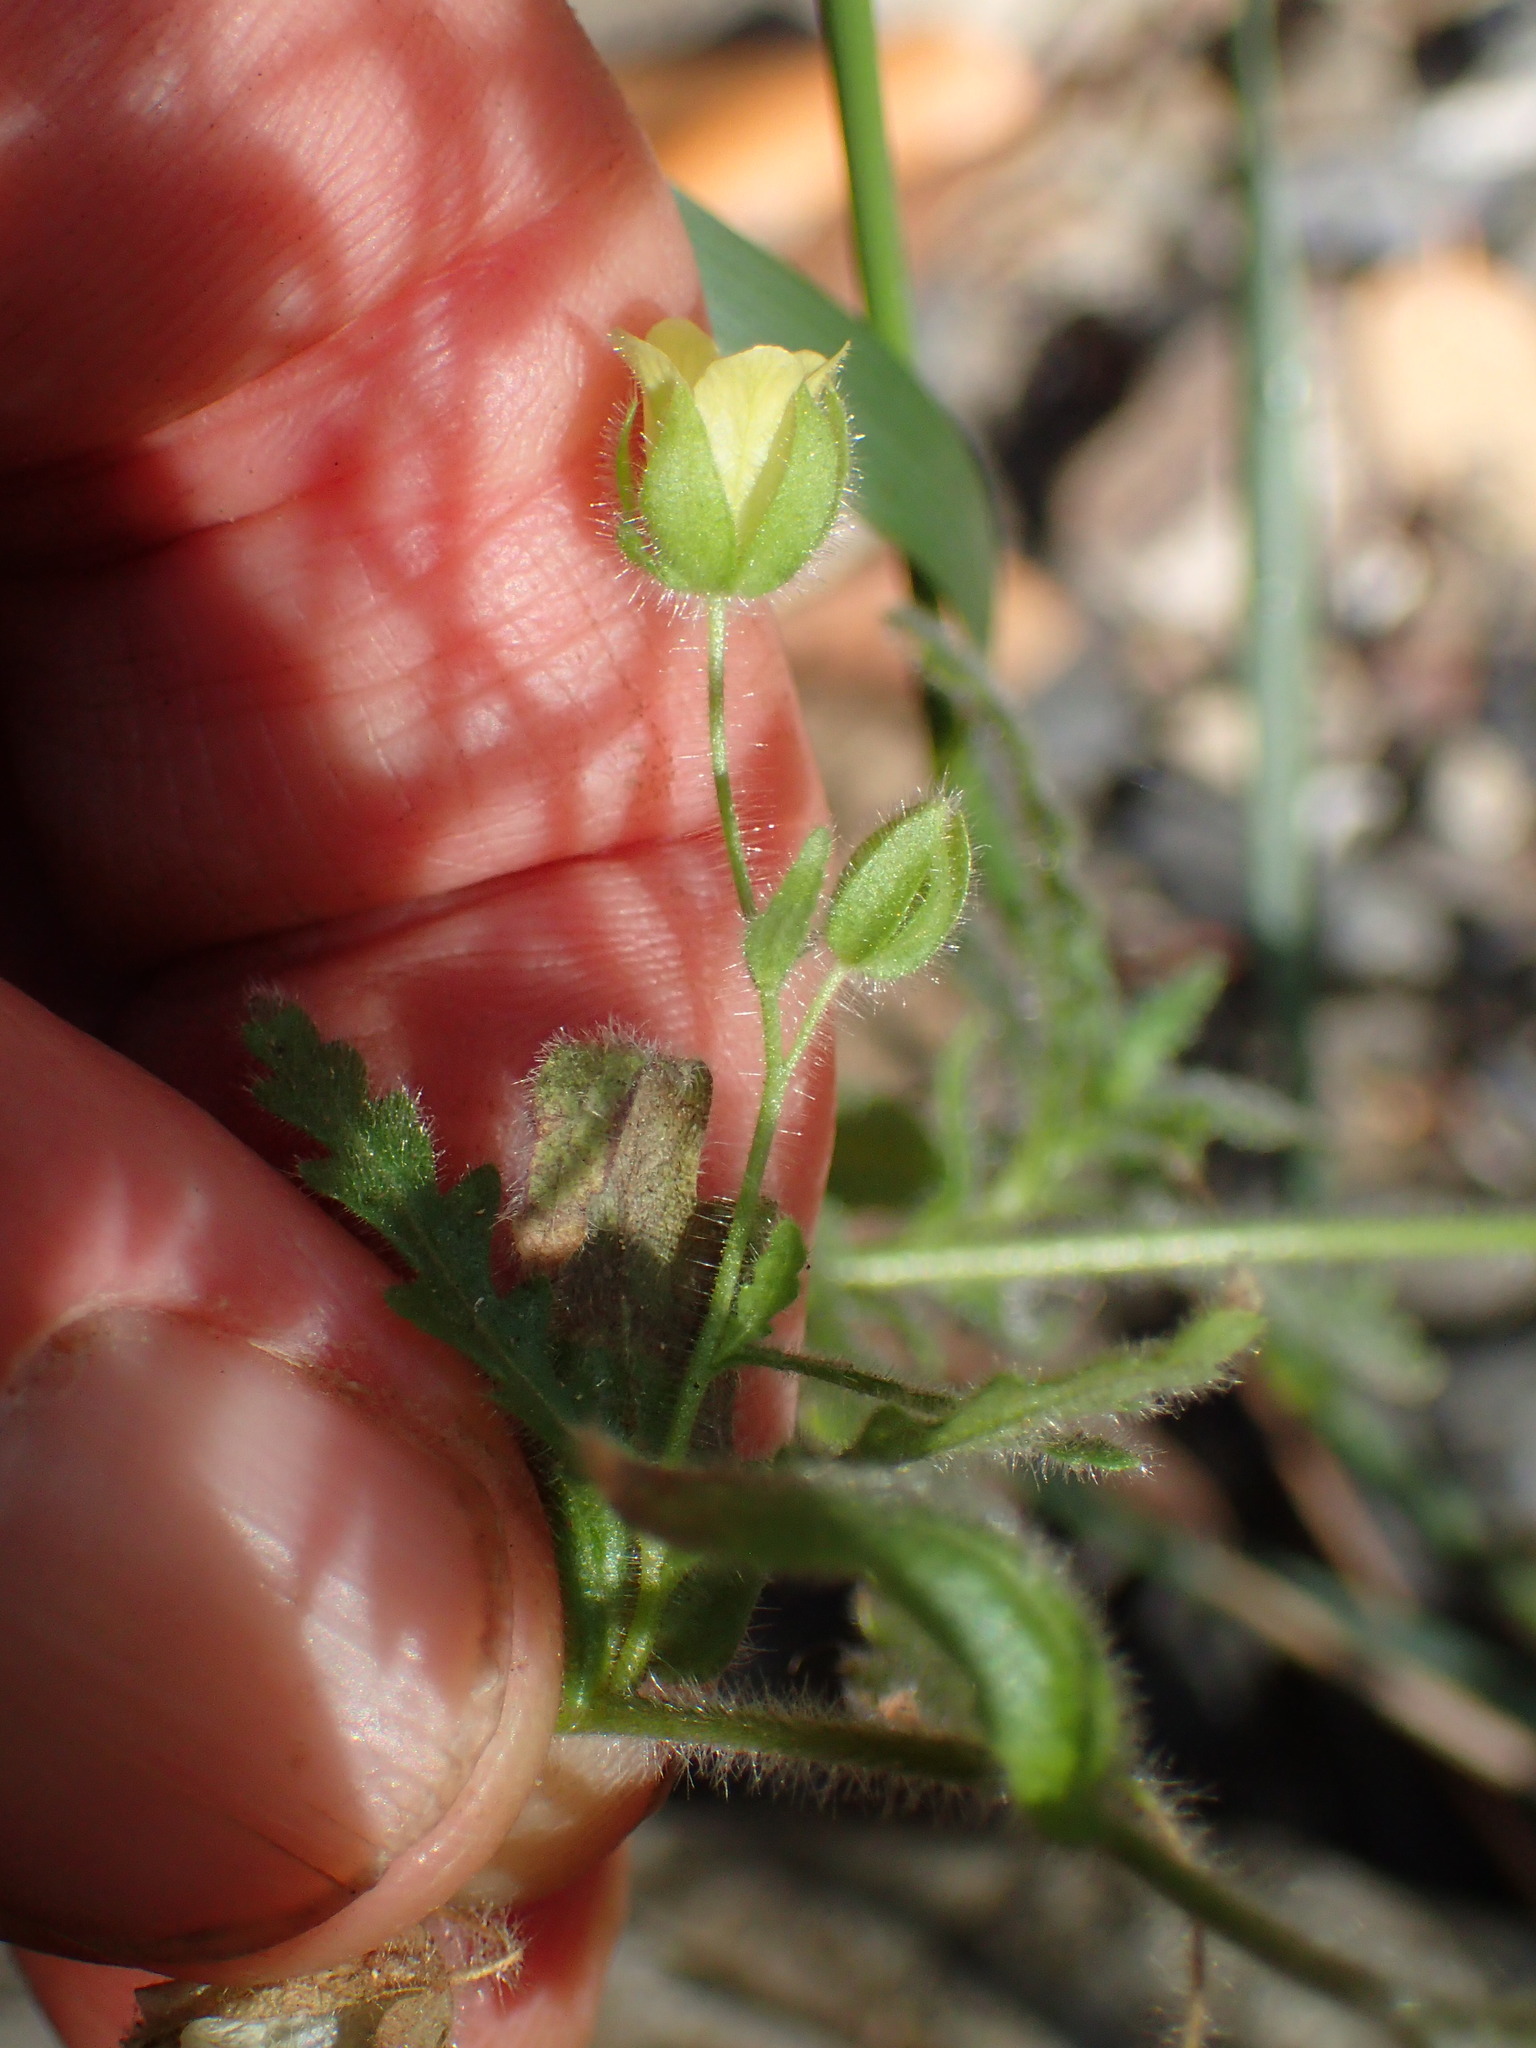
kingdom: Plantae
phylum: Tracheophyta
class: Magnoliopsida
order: Boraginales
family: Hydrophyllaceae
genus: Emmenanthe
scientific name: Emmenanthe penduliflora
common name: Whispering-bells
